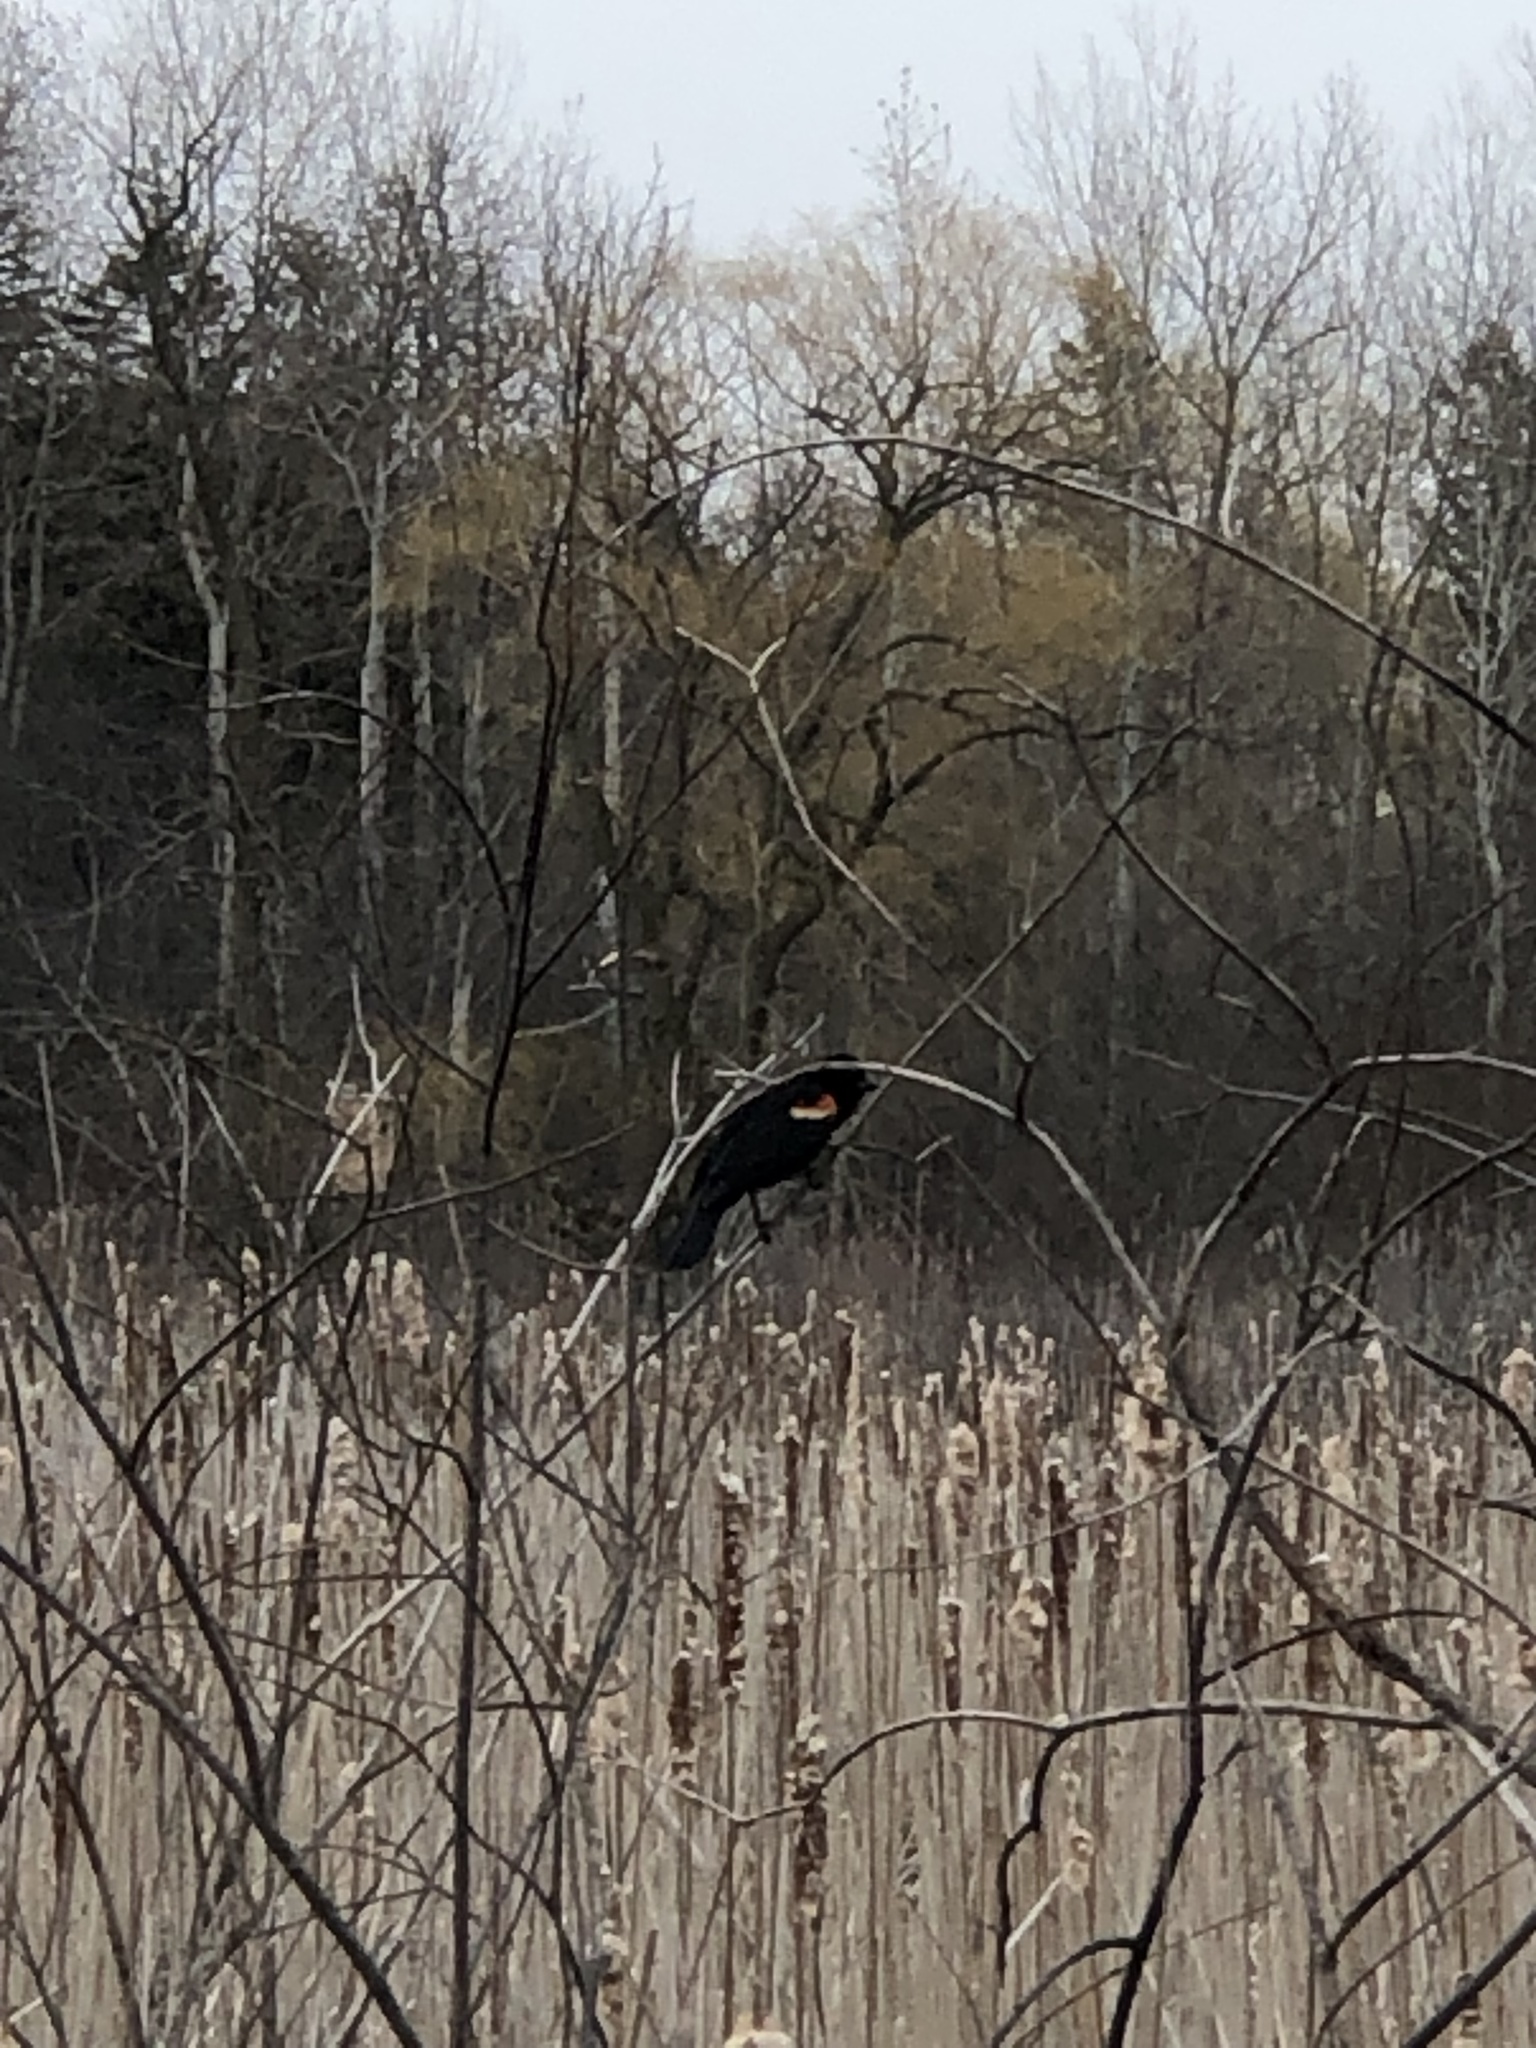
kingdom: Animalia
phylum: Chordata
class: Aves
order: Passeriformes
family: Icteridae
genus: Agelaius
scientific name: Agelaius phoeniceus
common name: Red-winged blackbird
